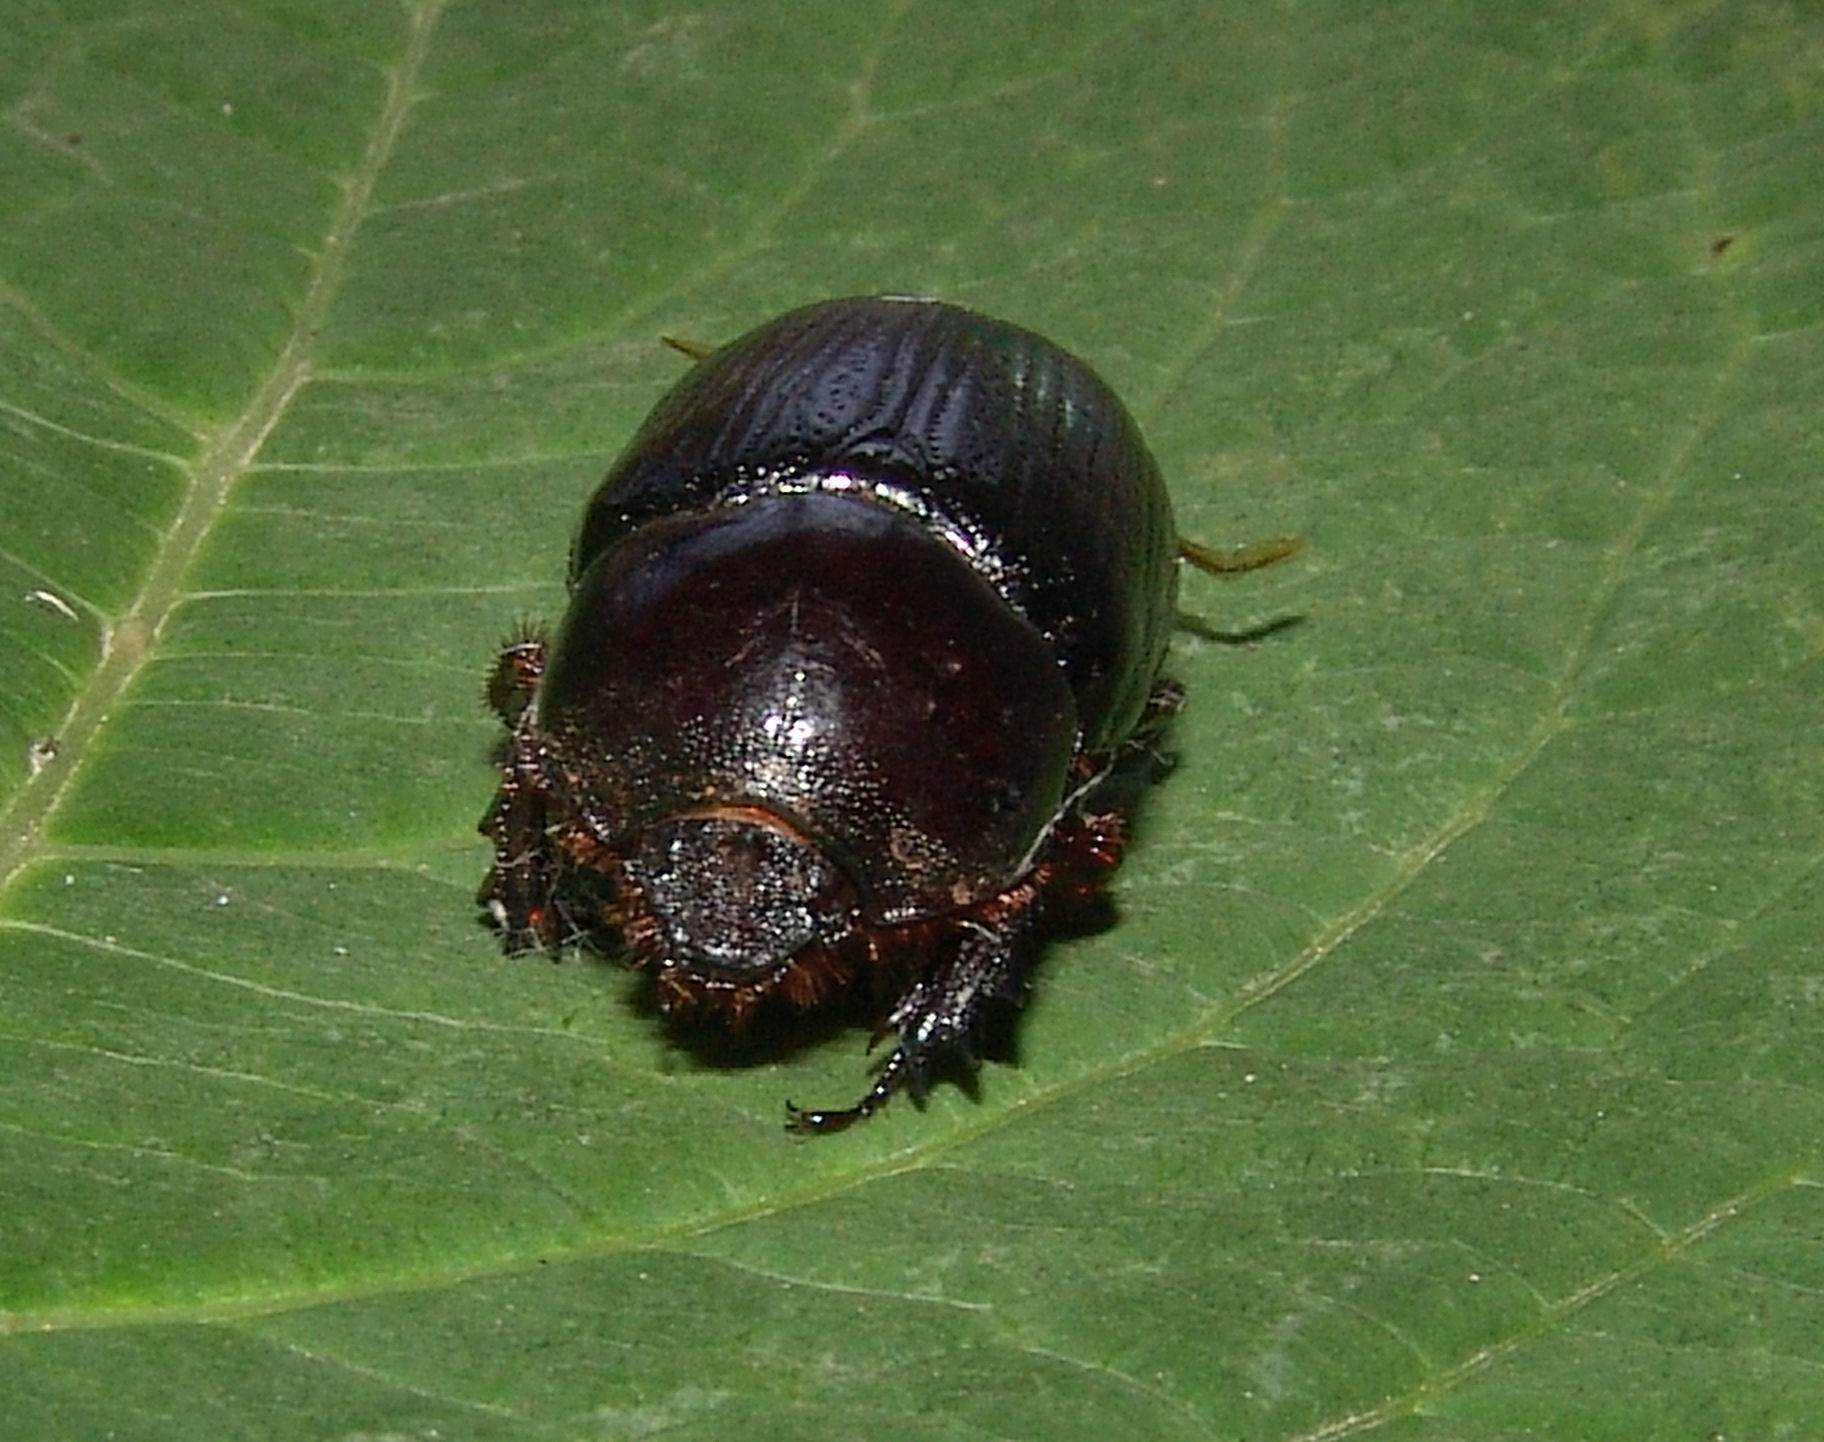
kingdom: Animalia
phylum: Arthropoda
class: Insecta
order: Coleoptera
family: Scarabaeidae
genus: Xyloryctes
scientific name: Xyloryctes jamaicensis
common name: Eastern rhinoceros beetle
